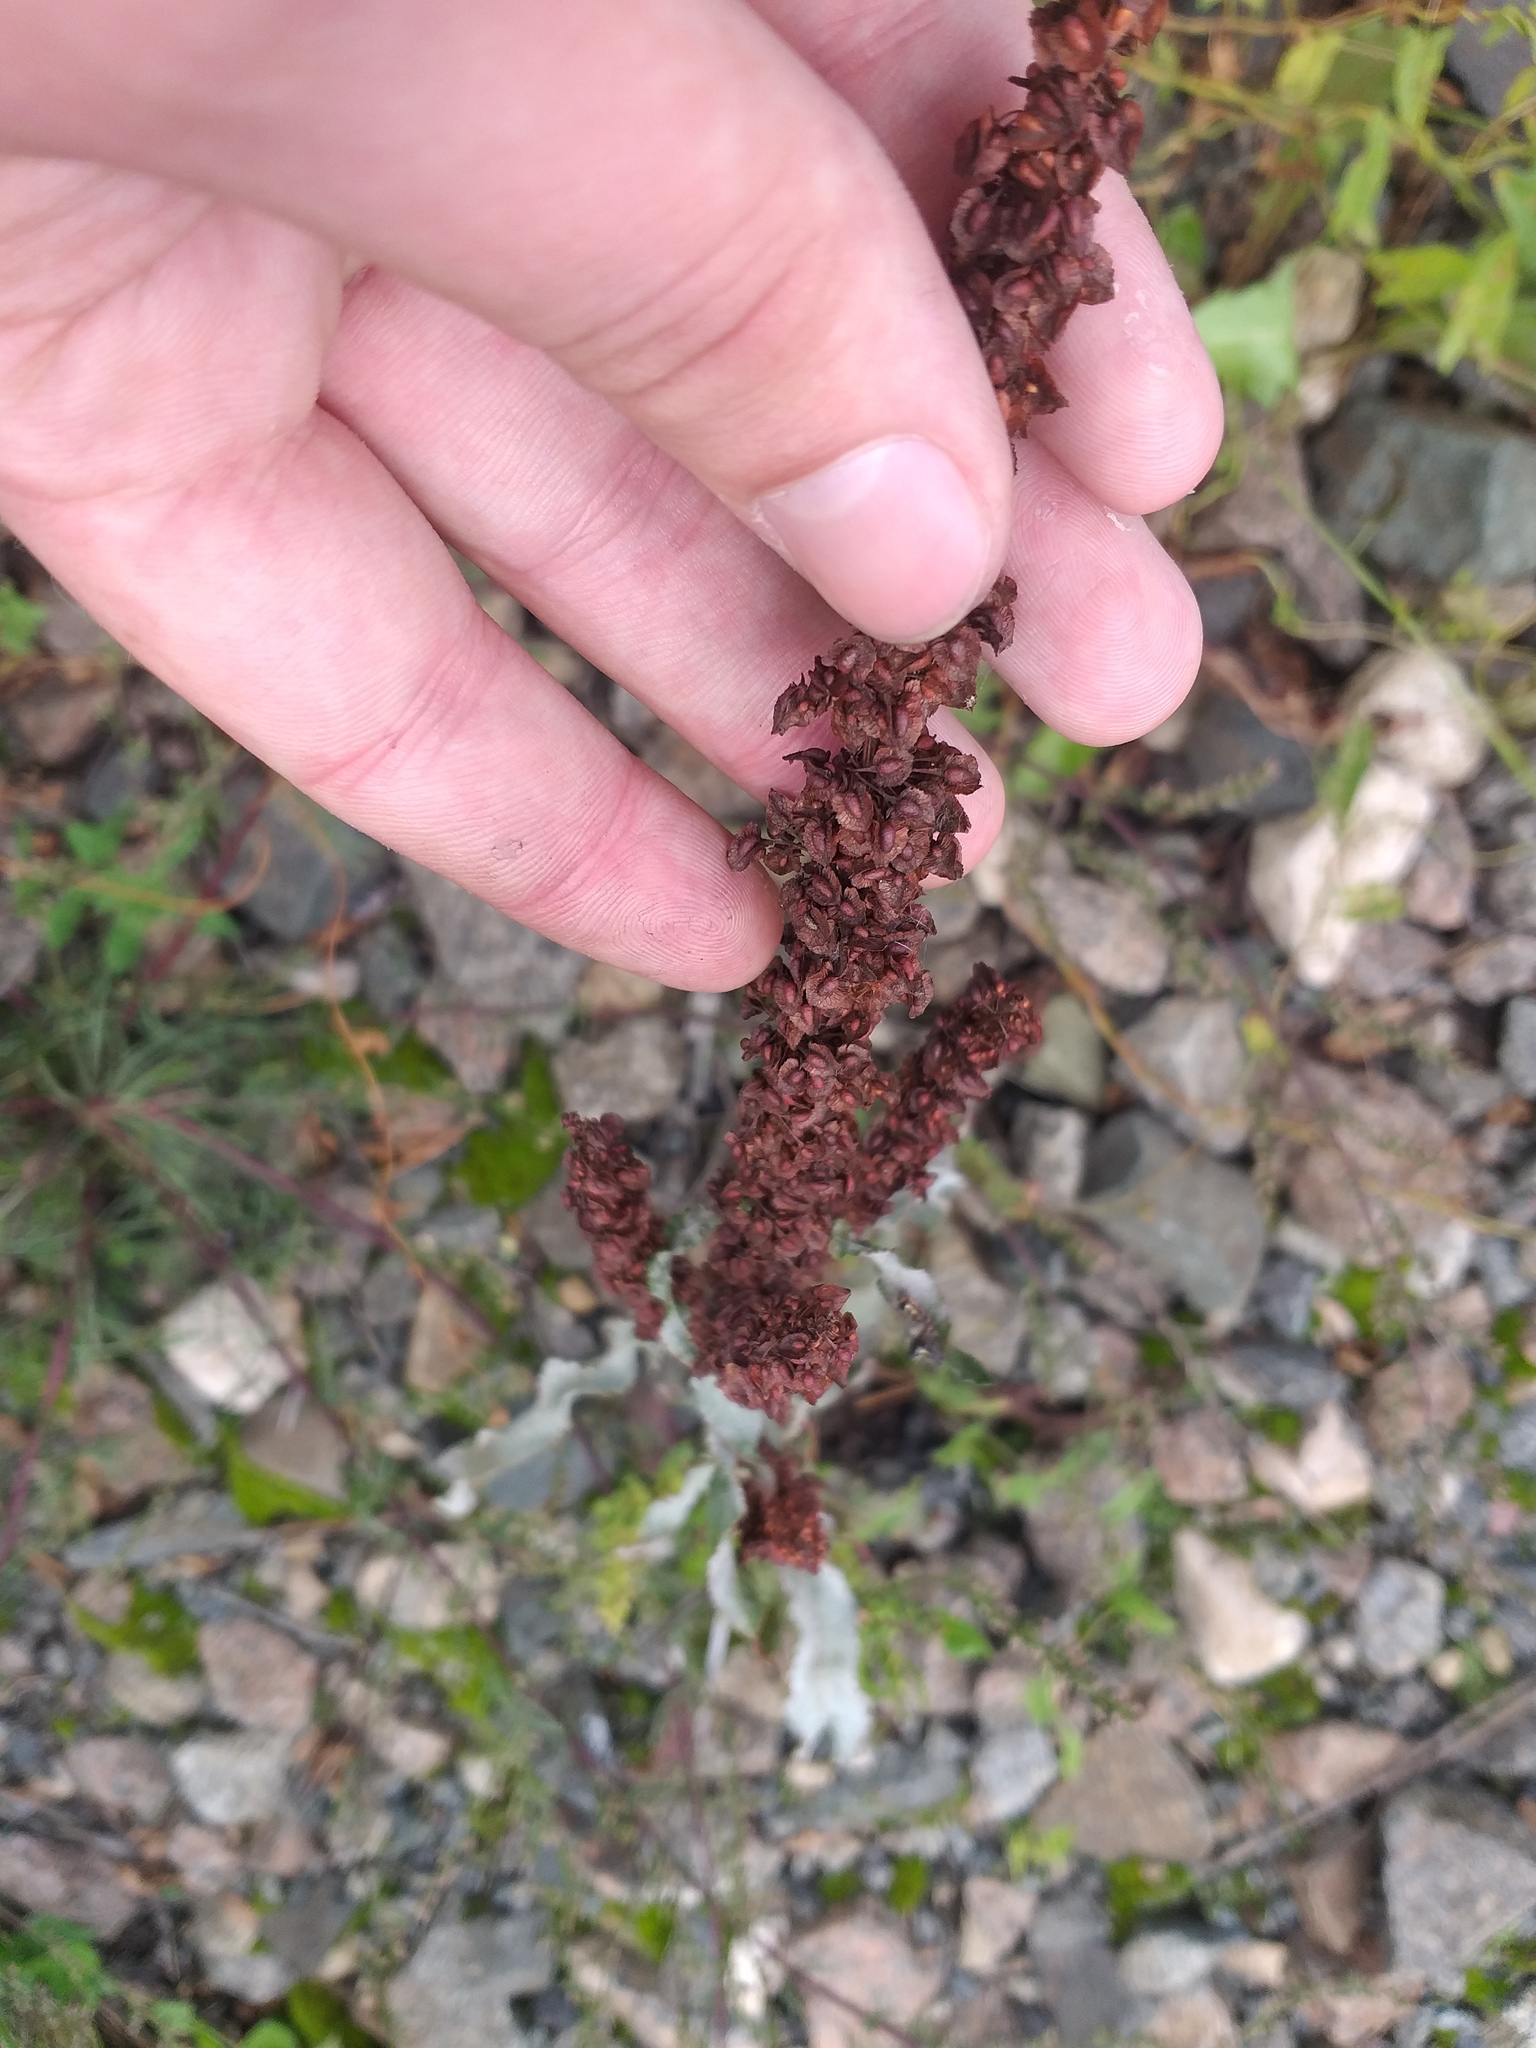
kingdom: Plantae
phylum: Tracheophyta
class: Magnoliopsida
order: Caryophyllales
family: Polygonaceae
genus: Rumex
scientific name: Rumex crispus
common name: Curled dock
